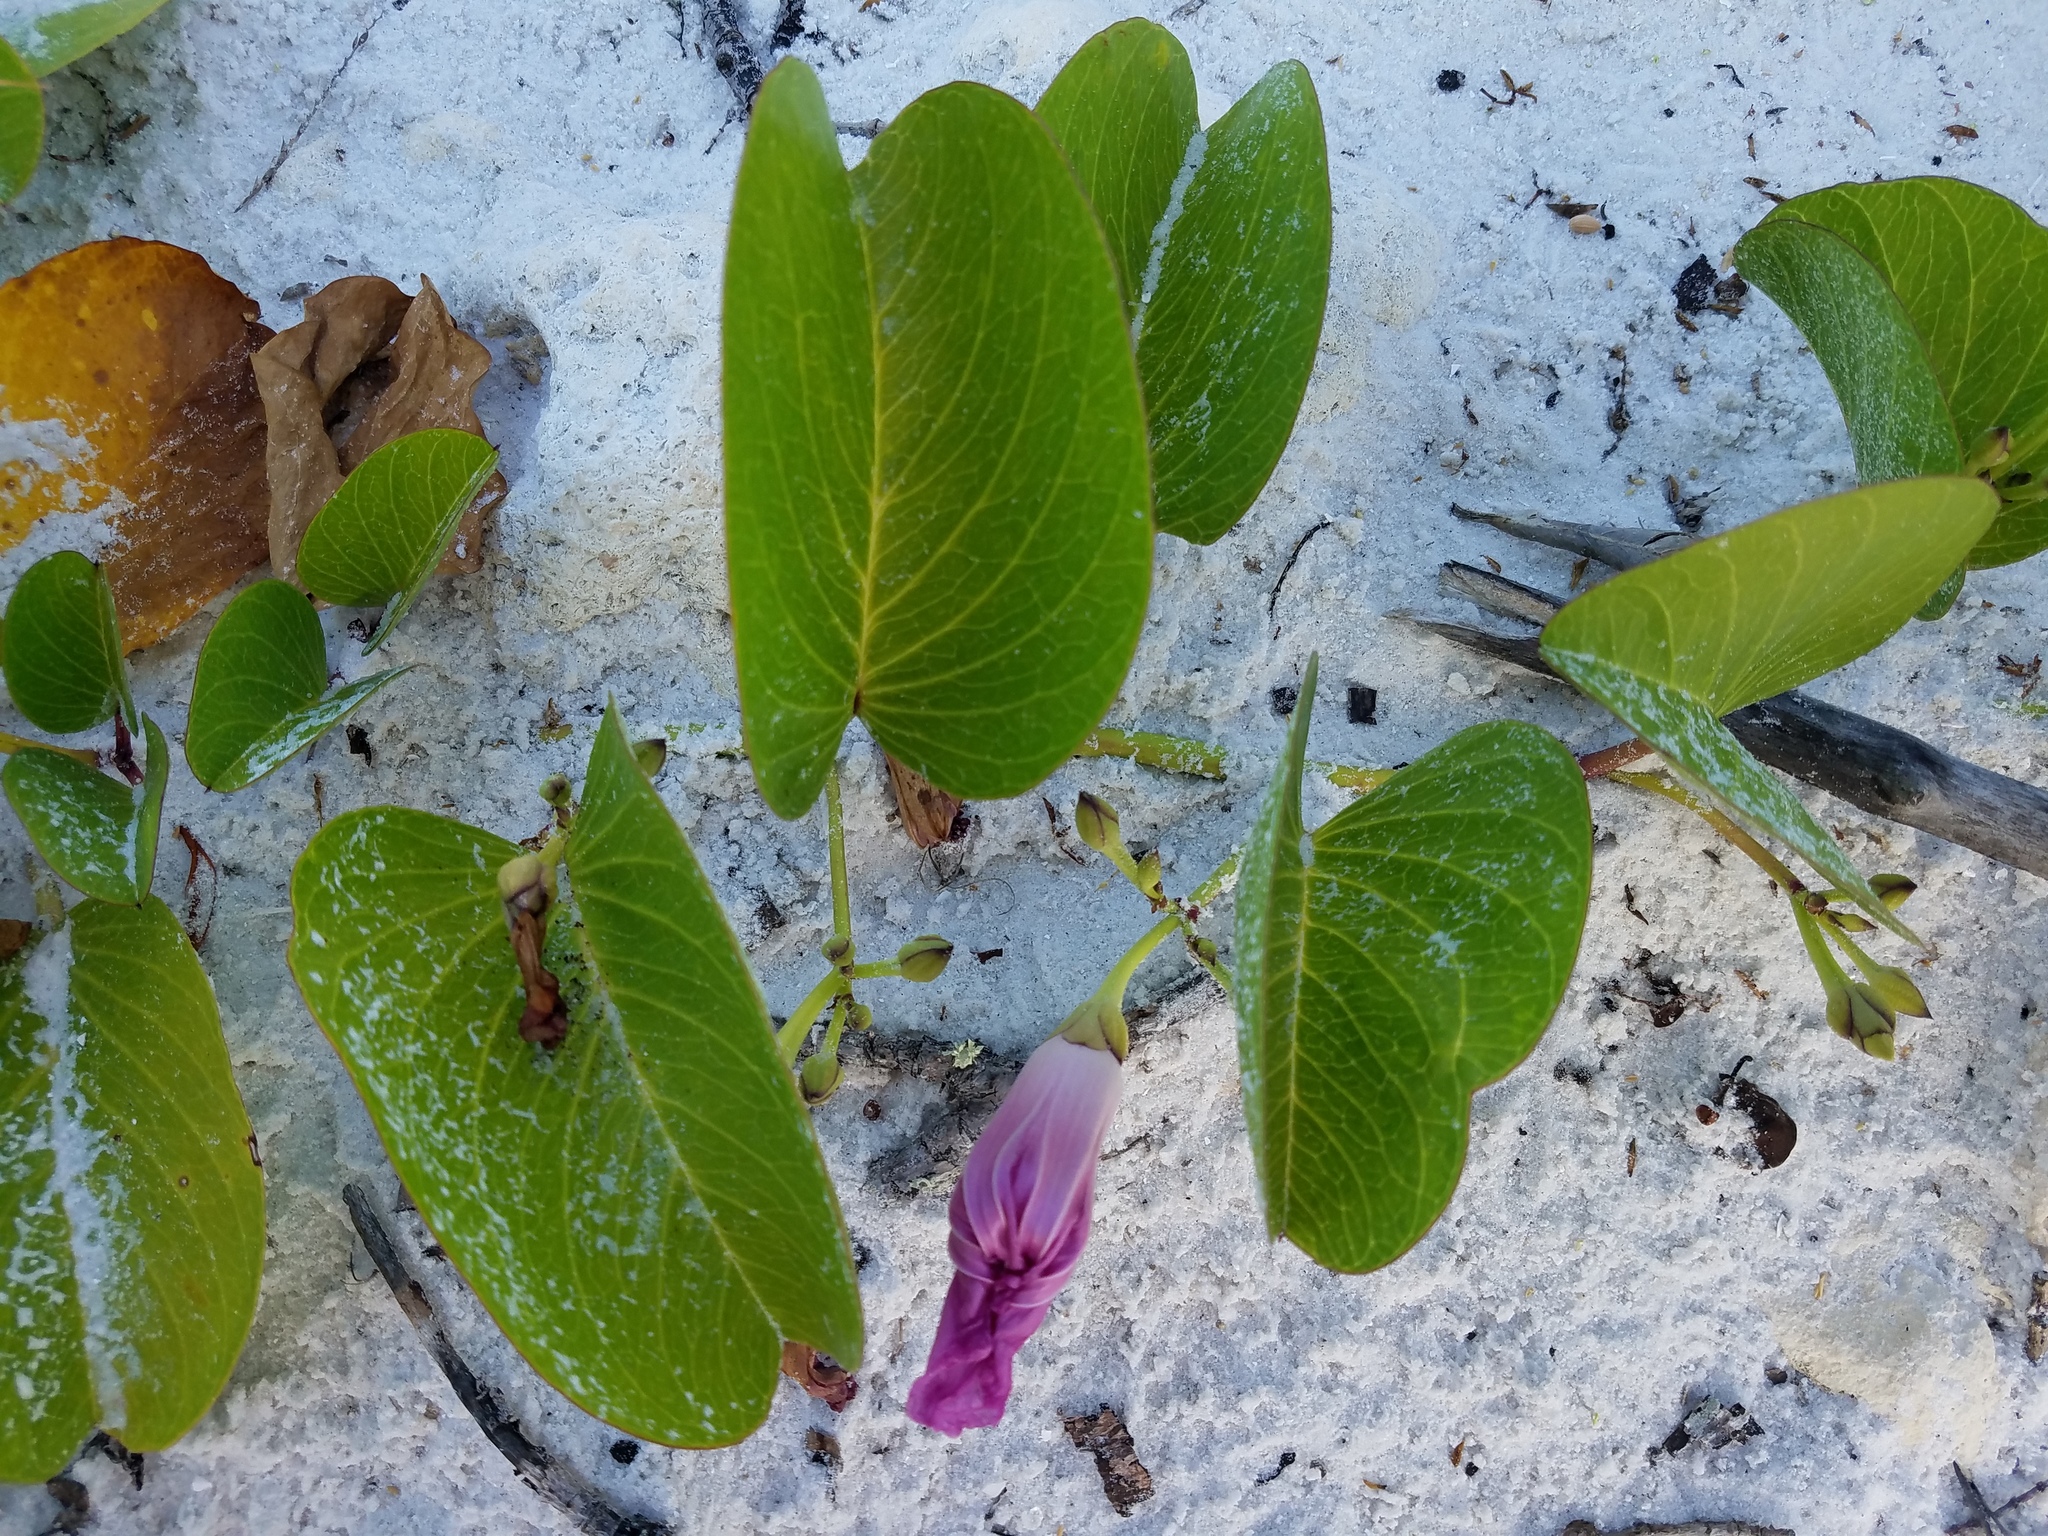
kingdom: Plantae
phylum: Tracheophyta
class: Magnoliopsida
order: Solanales
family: Convolvulaceae
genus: Ipomoea
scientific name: Ipomoea pes-caprae
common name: Beach morning glory
